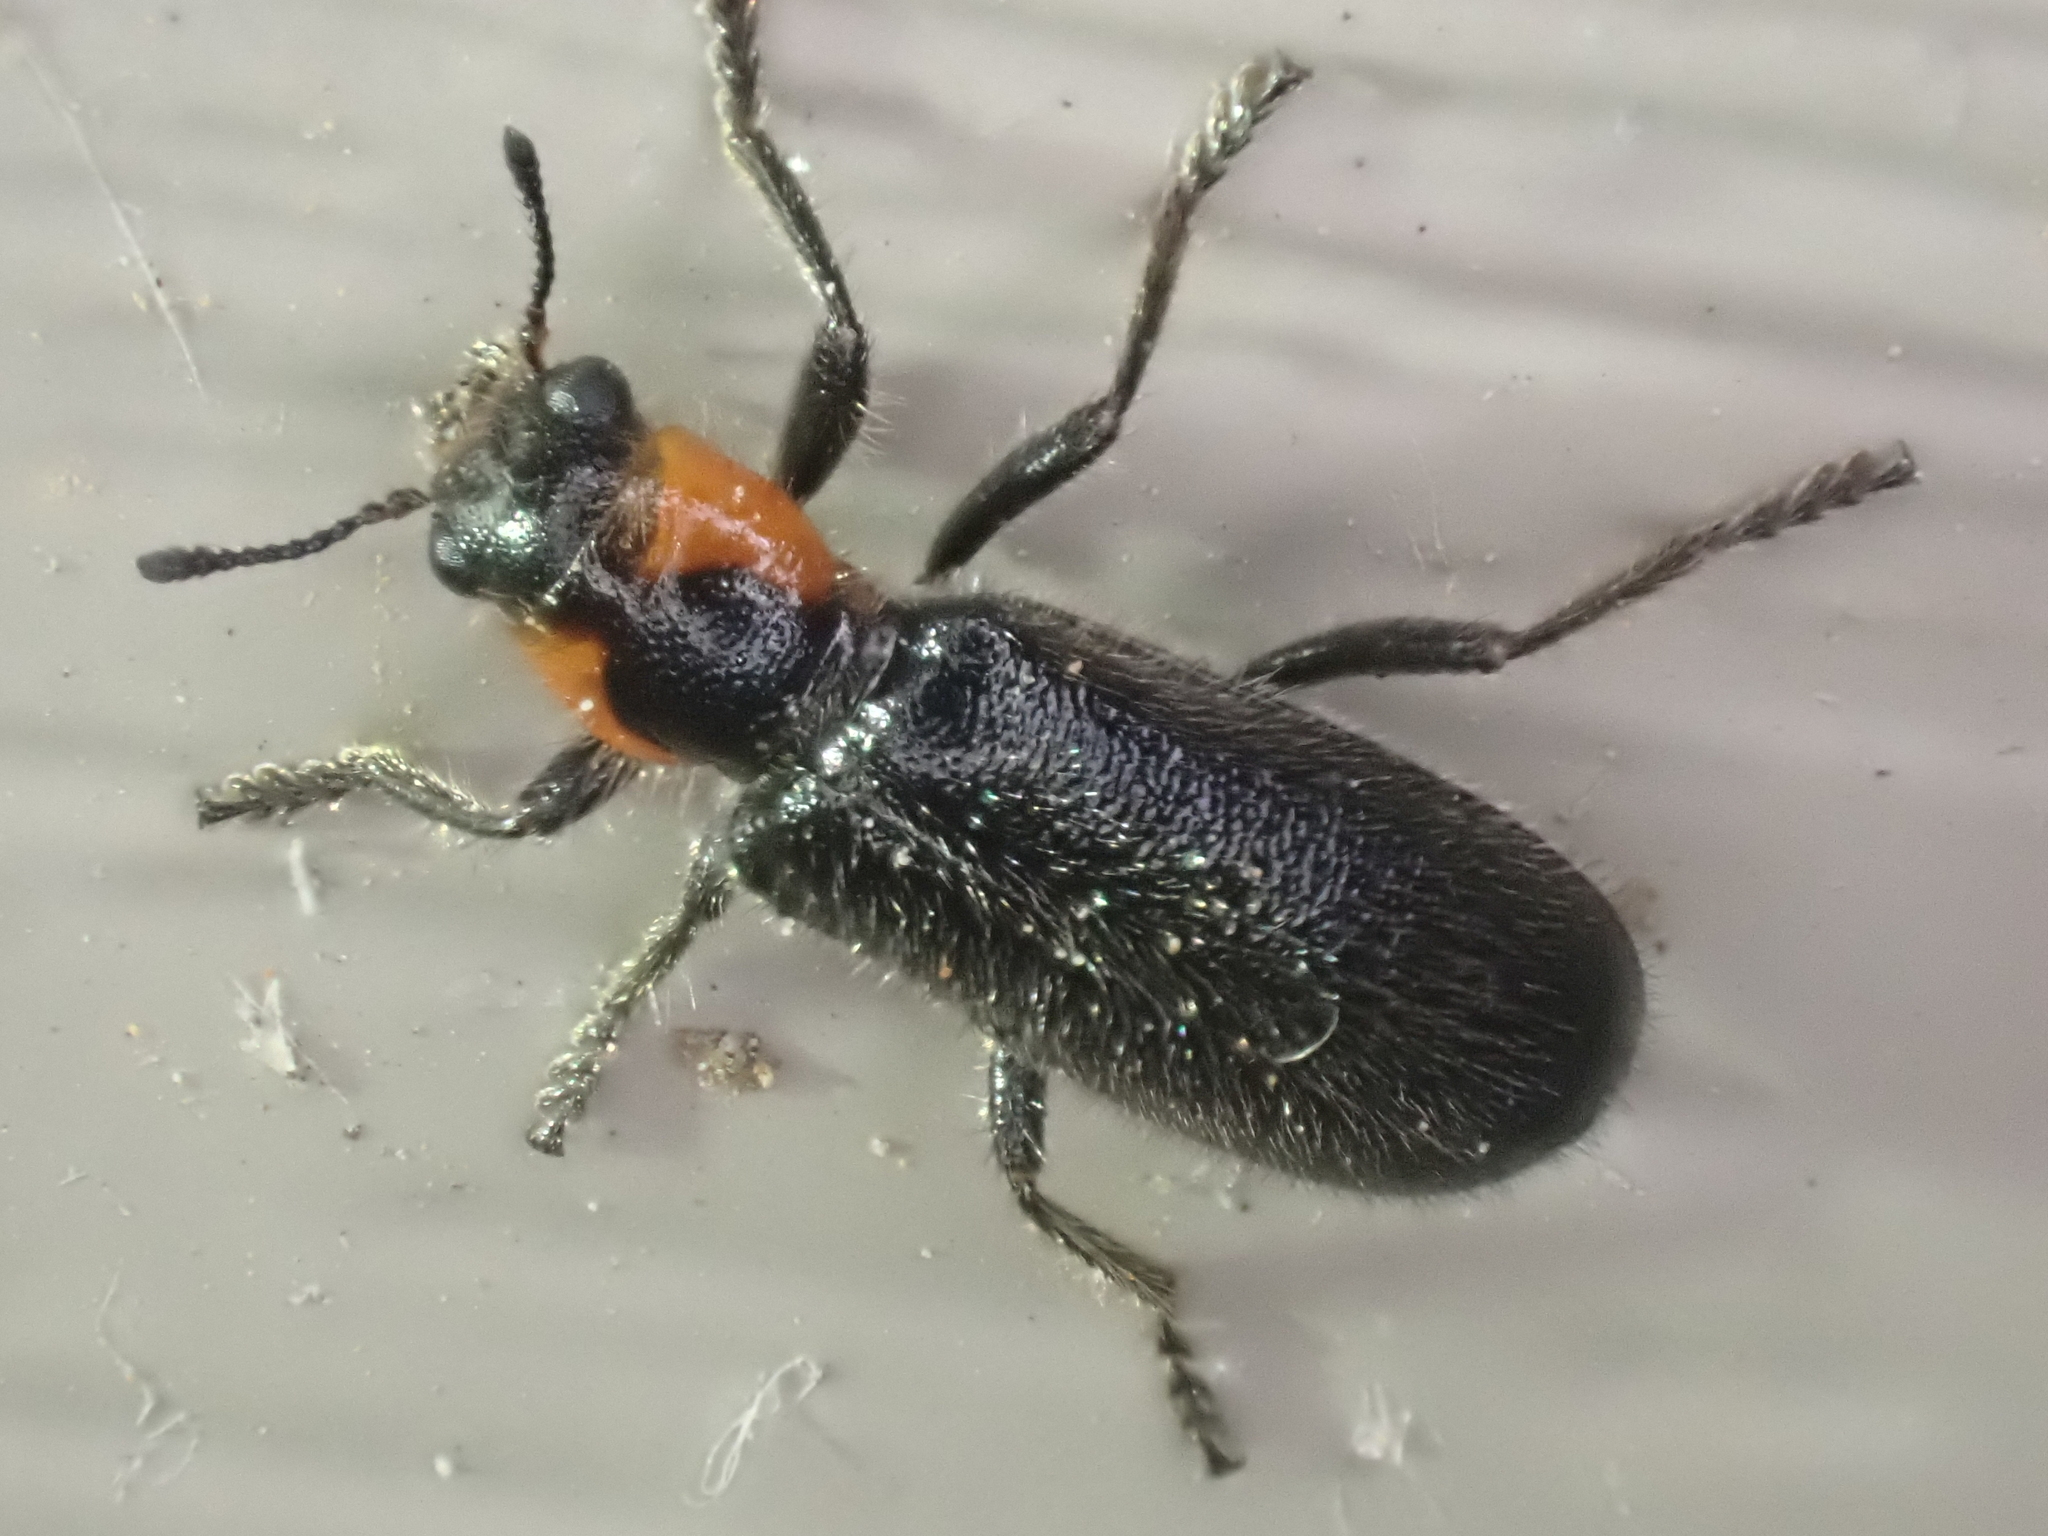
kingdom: Animalia
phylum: Arthropoda
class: Insecta
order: Coleoptera
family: Cleridae
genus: Placopterus
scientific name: Placopterus thoracicus
